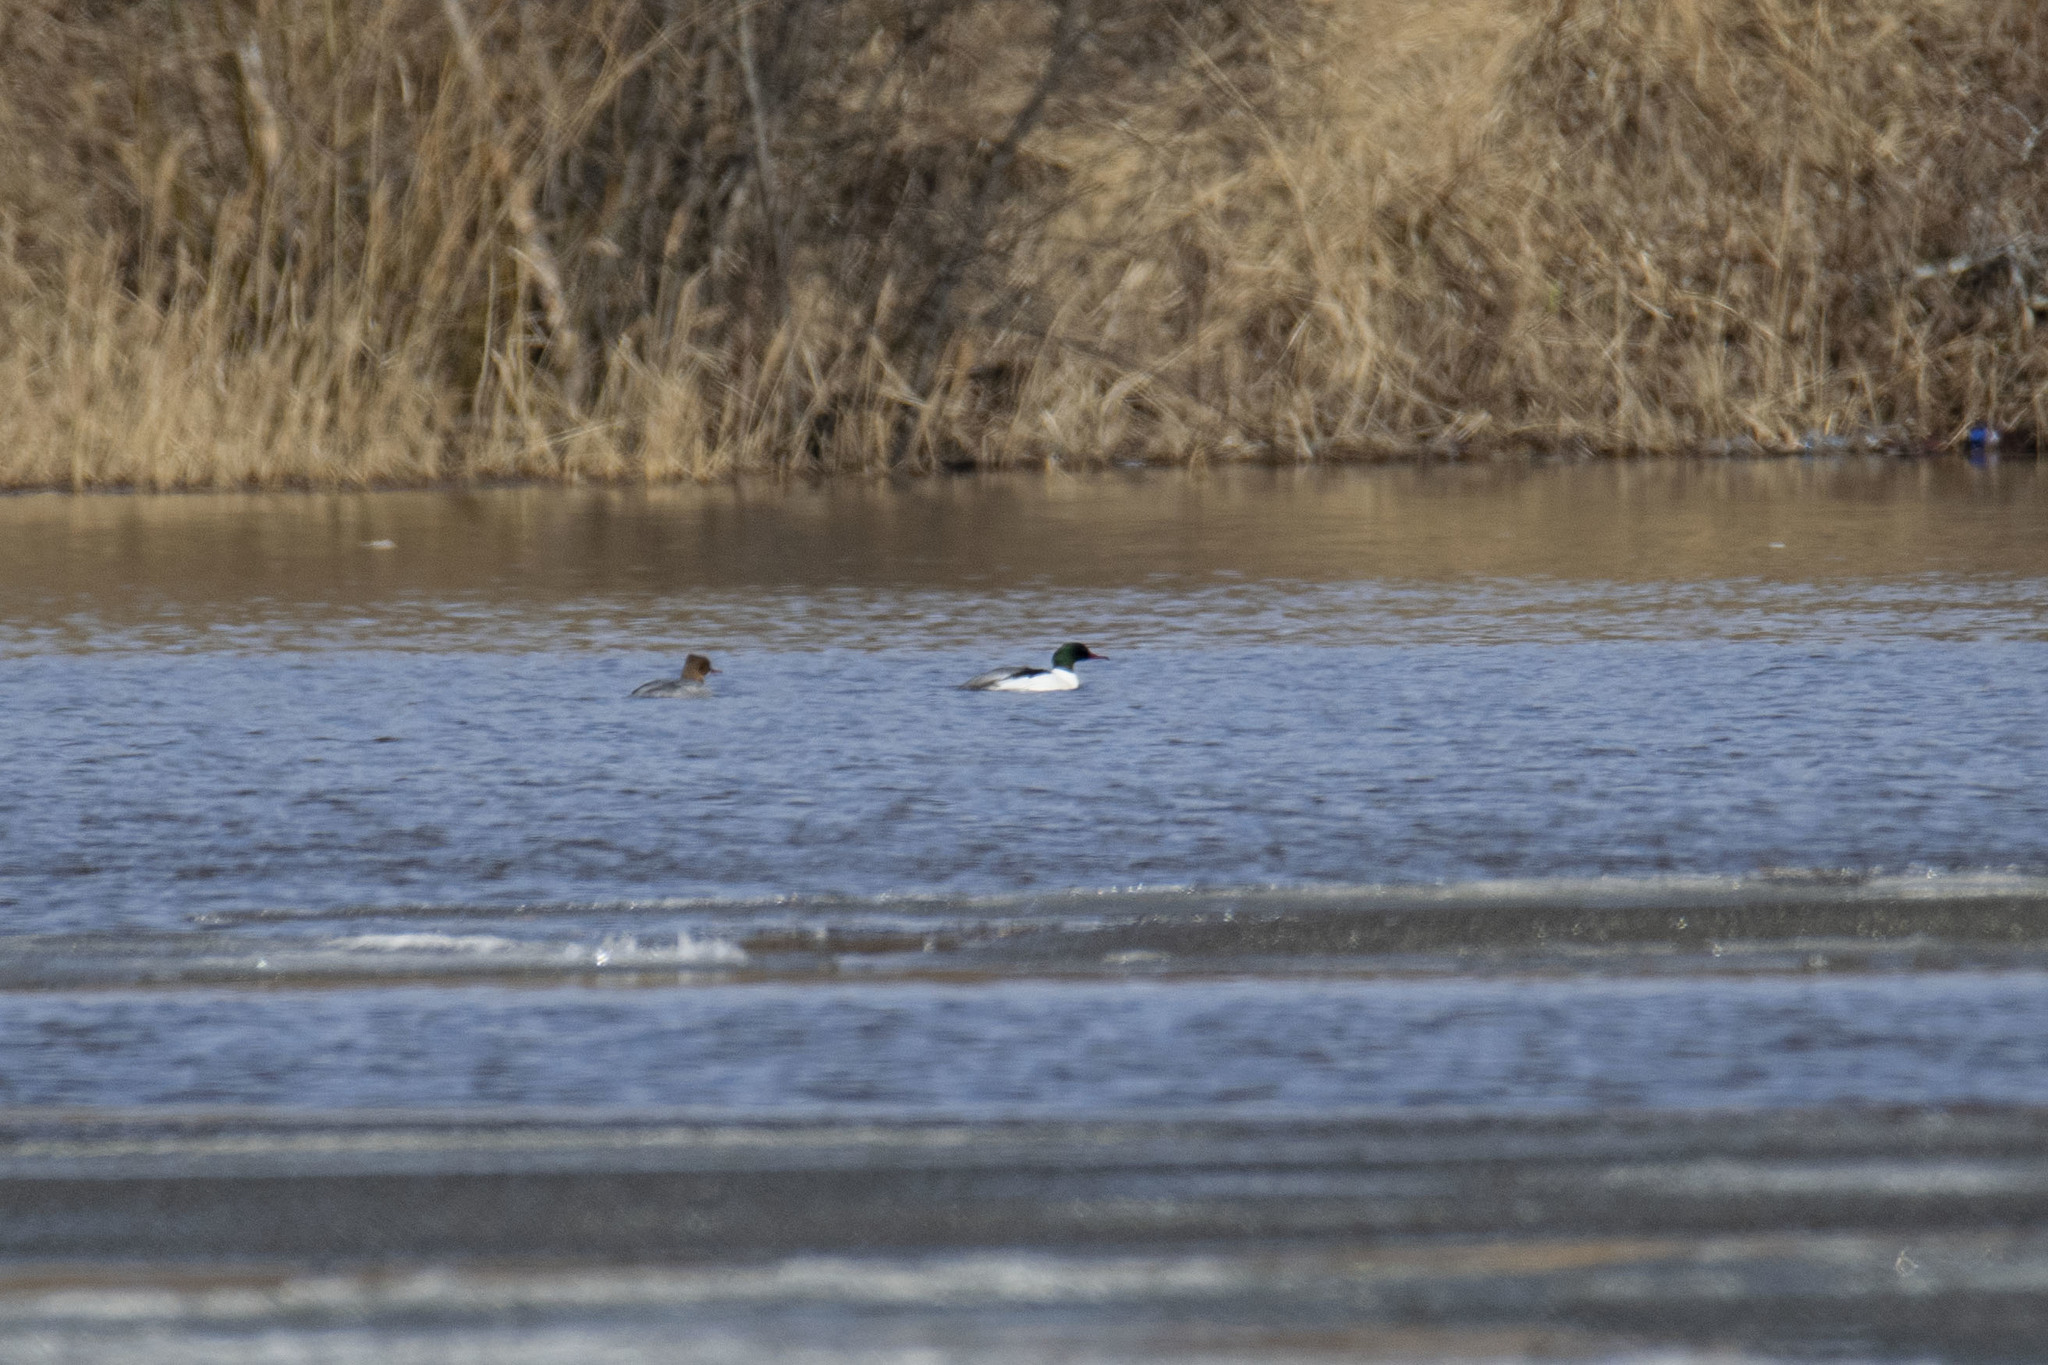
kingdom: Animalia
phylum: Chordata
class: Aves
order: Anseriformes
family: Anatidae
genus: Mergus
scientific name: Mergus merganser
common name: Common merganser
